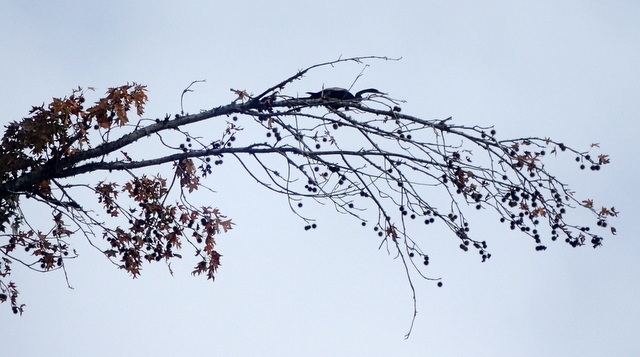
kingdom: Animalia
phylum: Chordata
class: Aves
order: Suliformes
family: Anhingidae
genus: Anhinga
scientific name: Anhinga anhinga
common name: Anhinga
